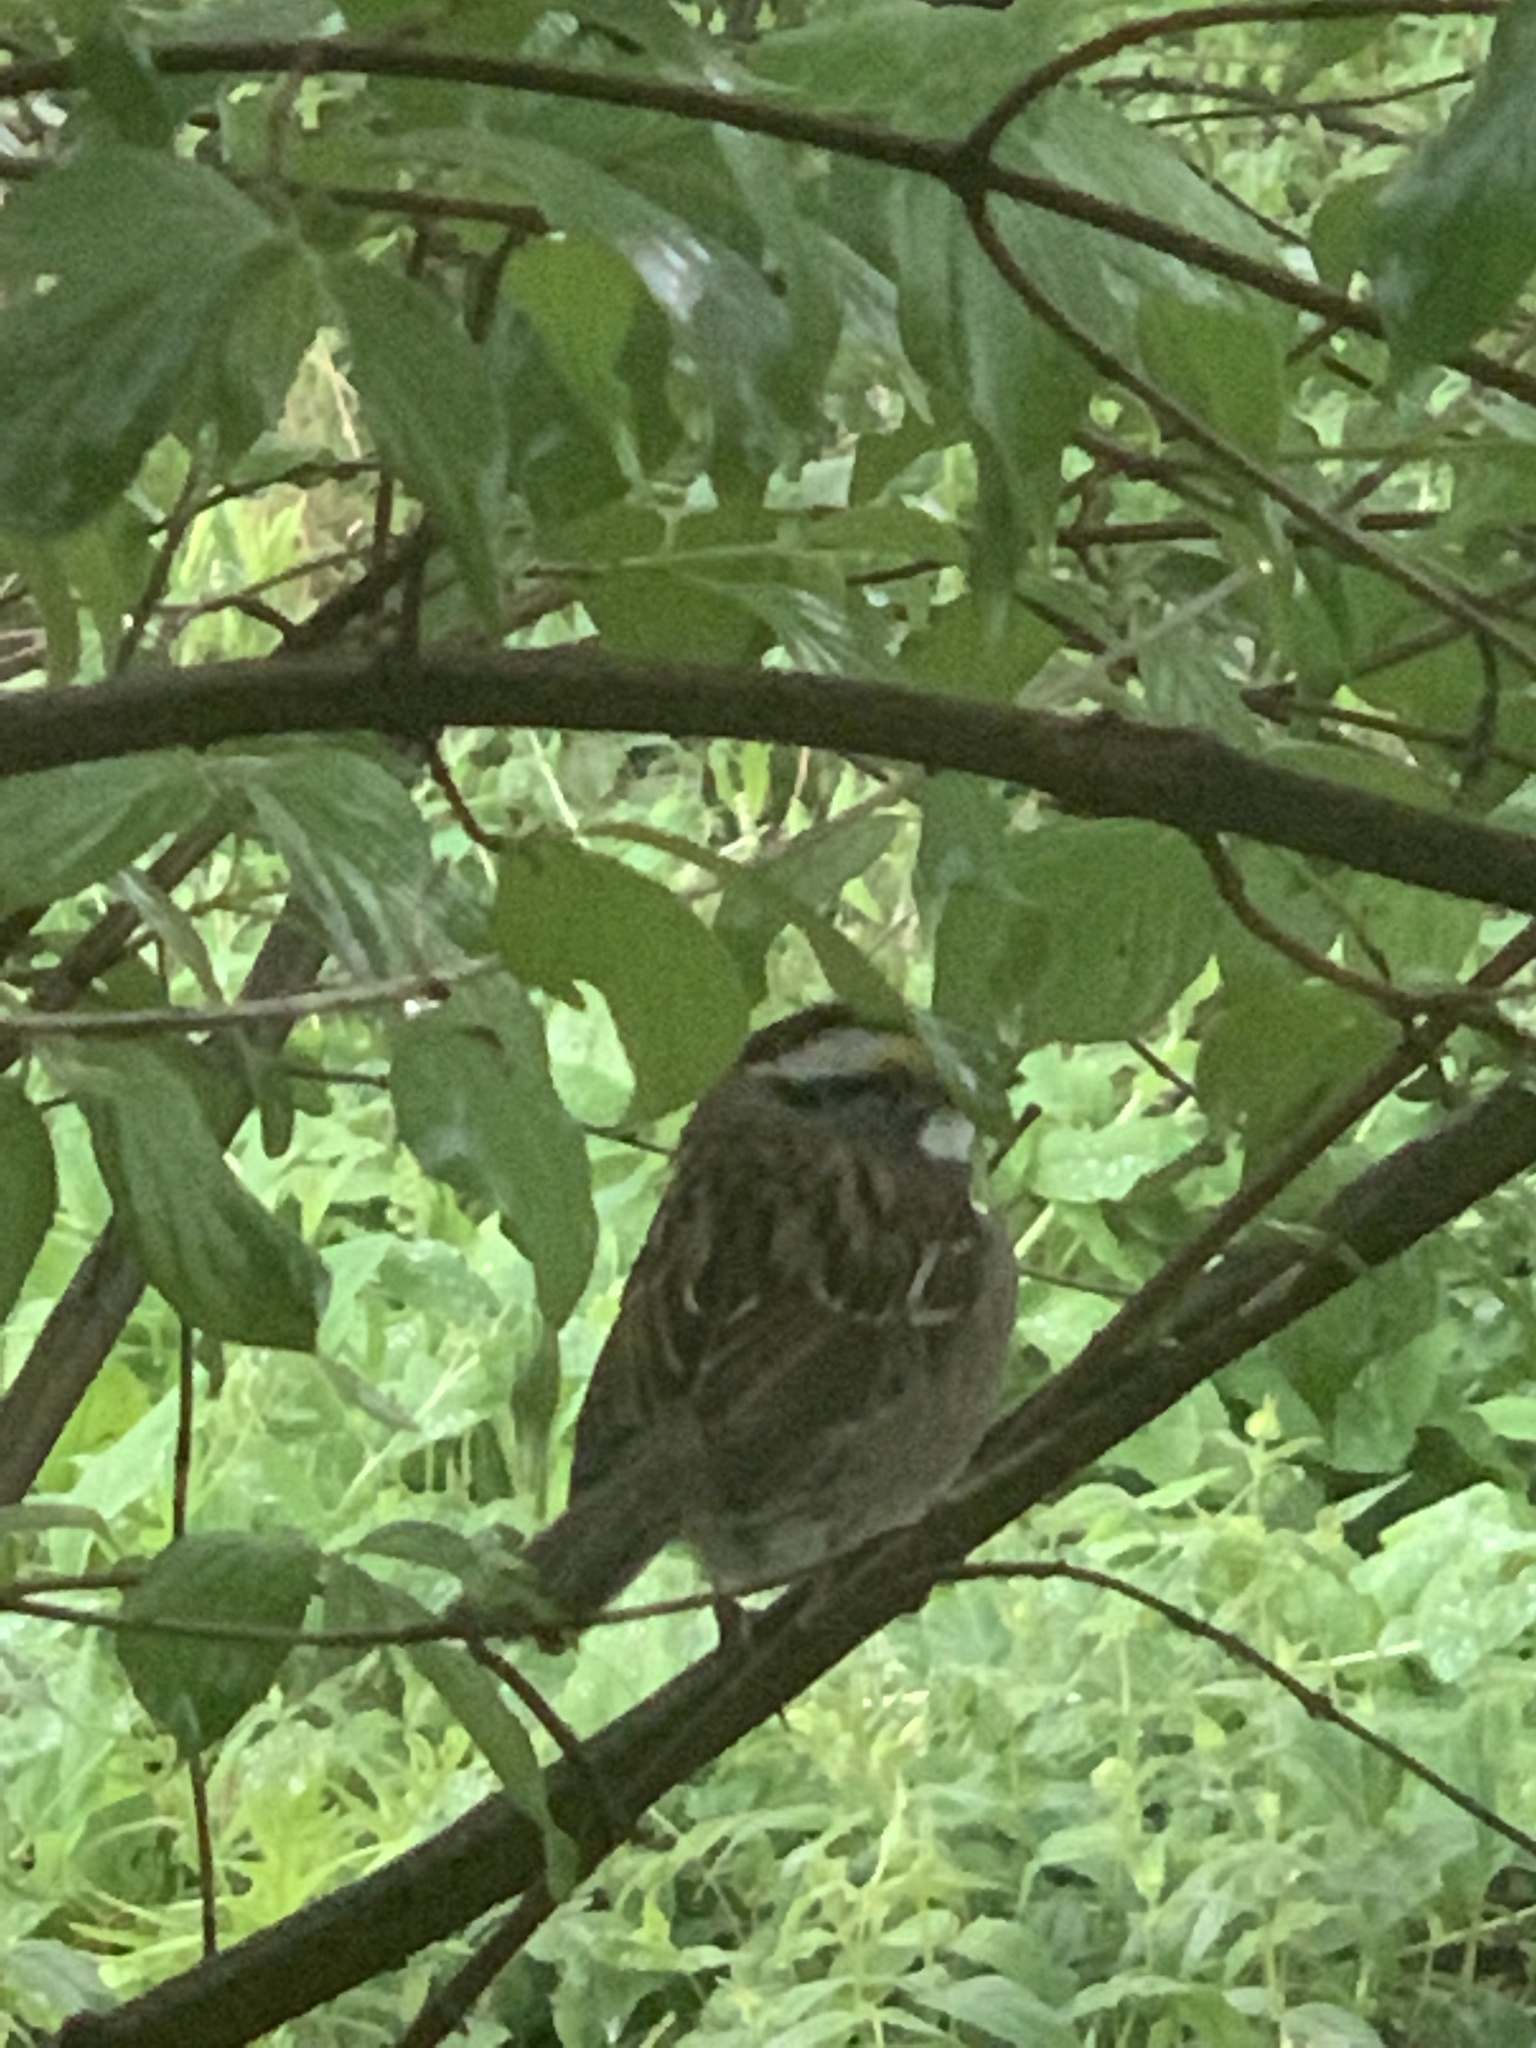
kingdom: Animalia
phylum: Chordata
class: Aves
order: Passeriformes
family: Passerellidae
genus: Zonotrichia
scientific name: Zonotrichia albicollis
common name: White-throated sparrow
